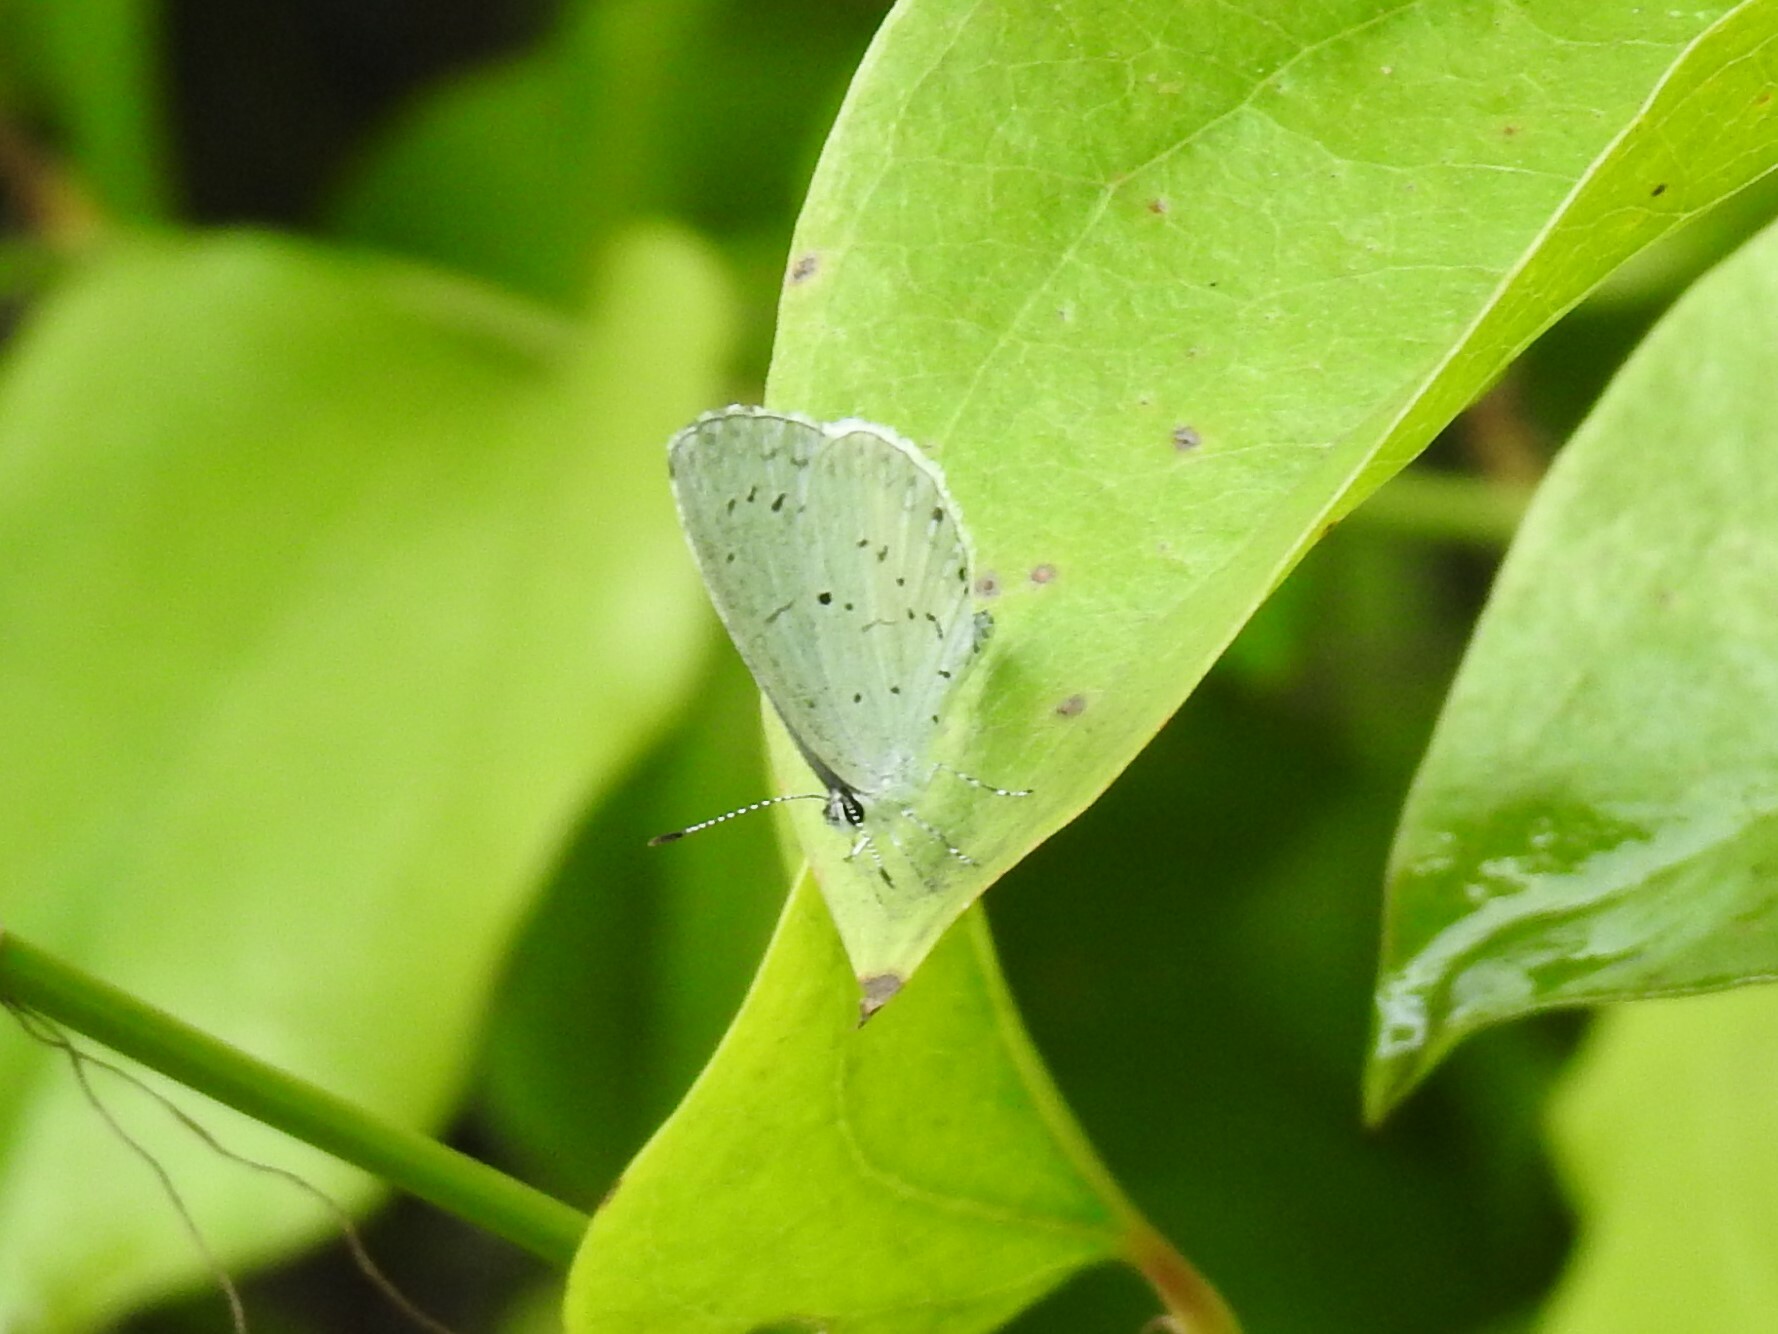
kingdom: Animalia
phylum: Arthropoda
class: Insecta
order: Lepidoptera
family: Lycaenidae
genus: Cyaniris
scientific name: Cyaniris neglecta
